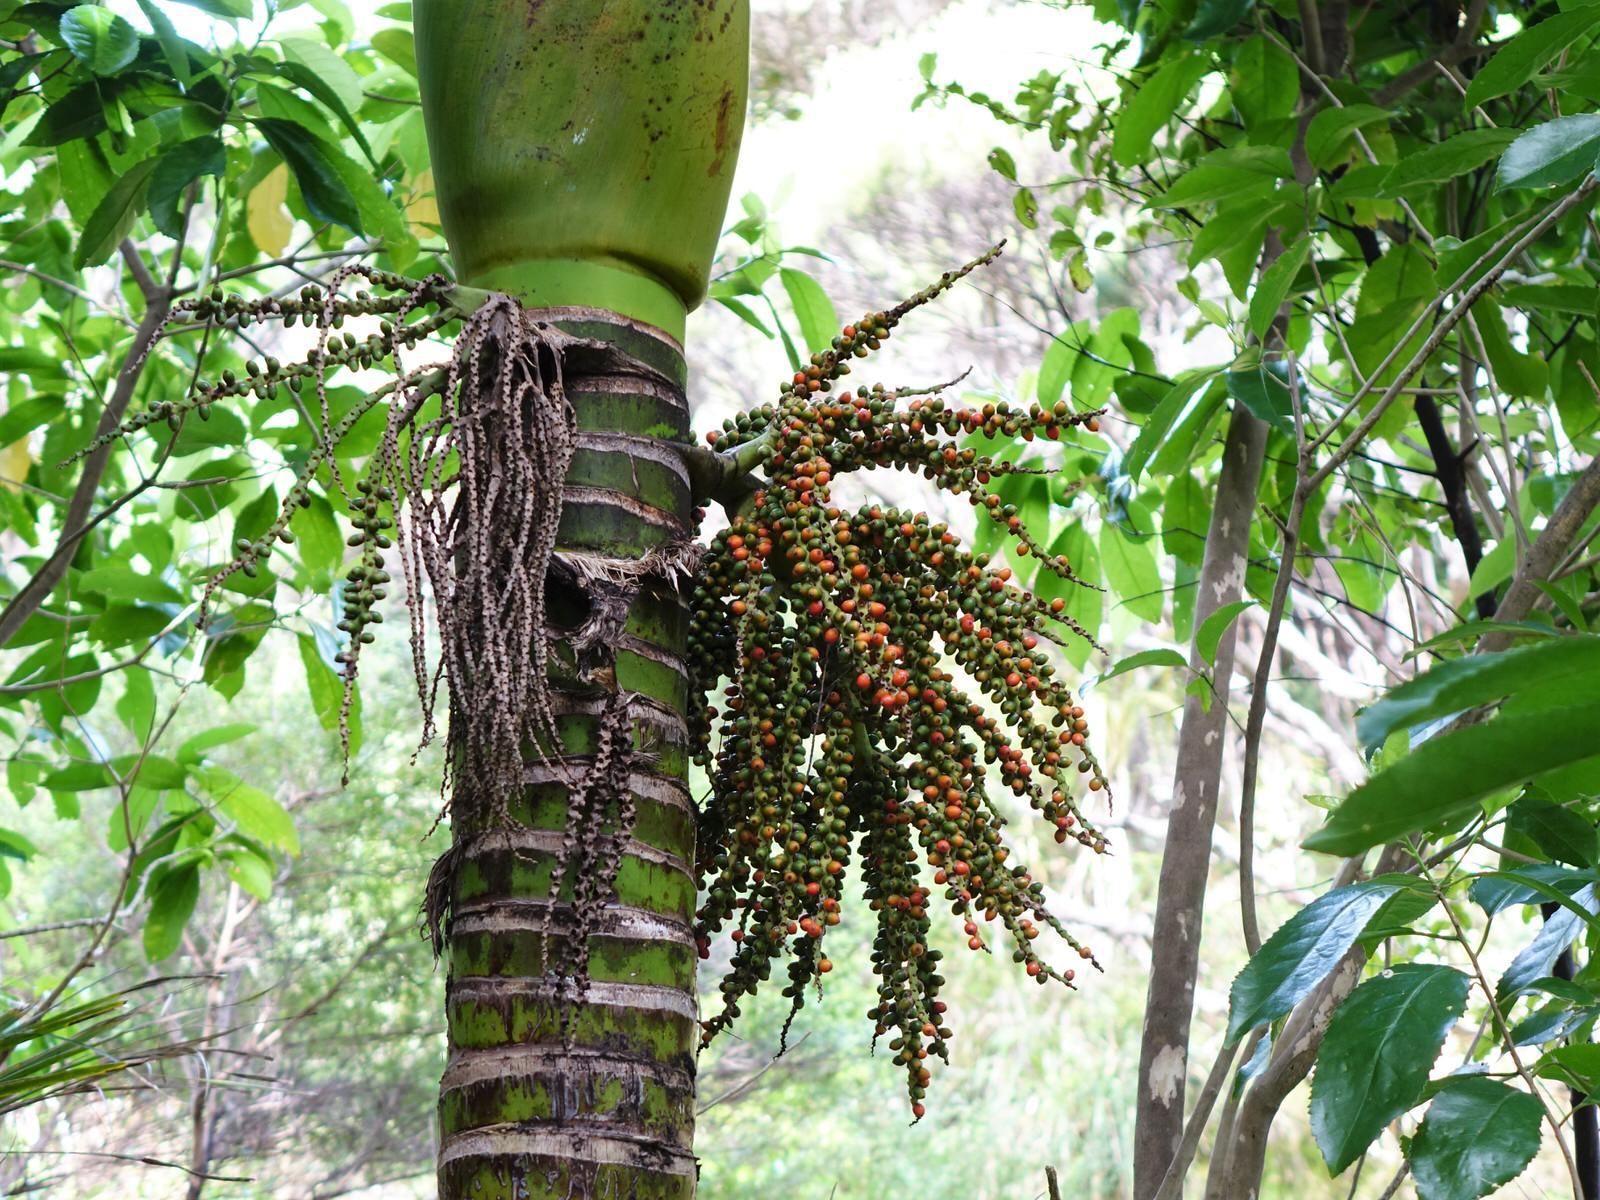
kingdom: Plantae
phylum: Tracheophyta
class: Liliopsida
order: Arecales
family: Arecaceae
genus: Rhopalostylis
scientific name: Rhopalostylis sapida
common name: Feather-duster palm
